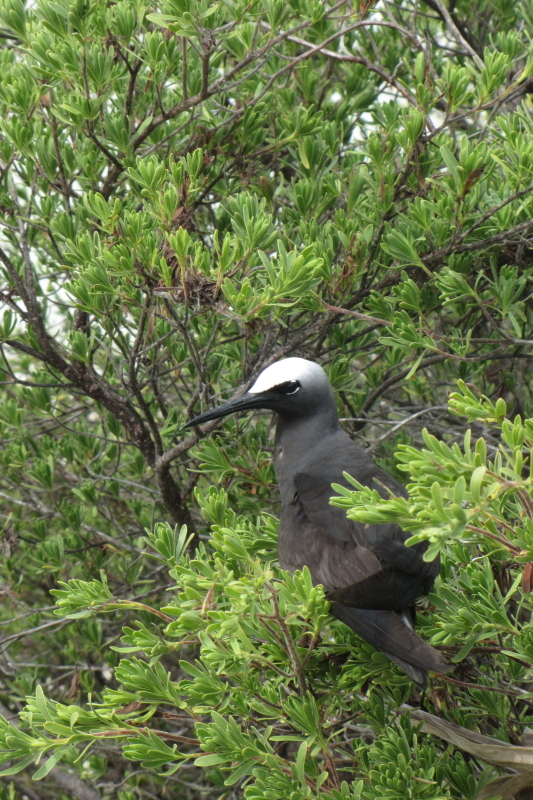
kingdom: Animalia
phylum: Chordata
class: Aves
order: Charadriiformes
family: Laridae
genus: Anous
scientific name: Anous minutus
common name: Black noddy
